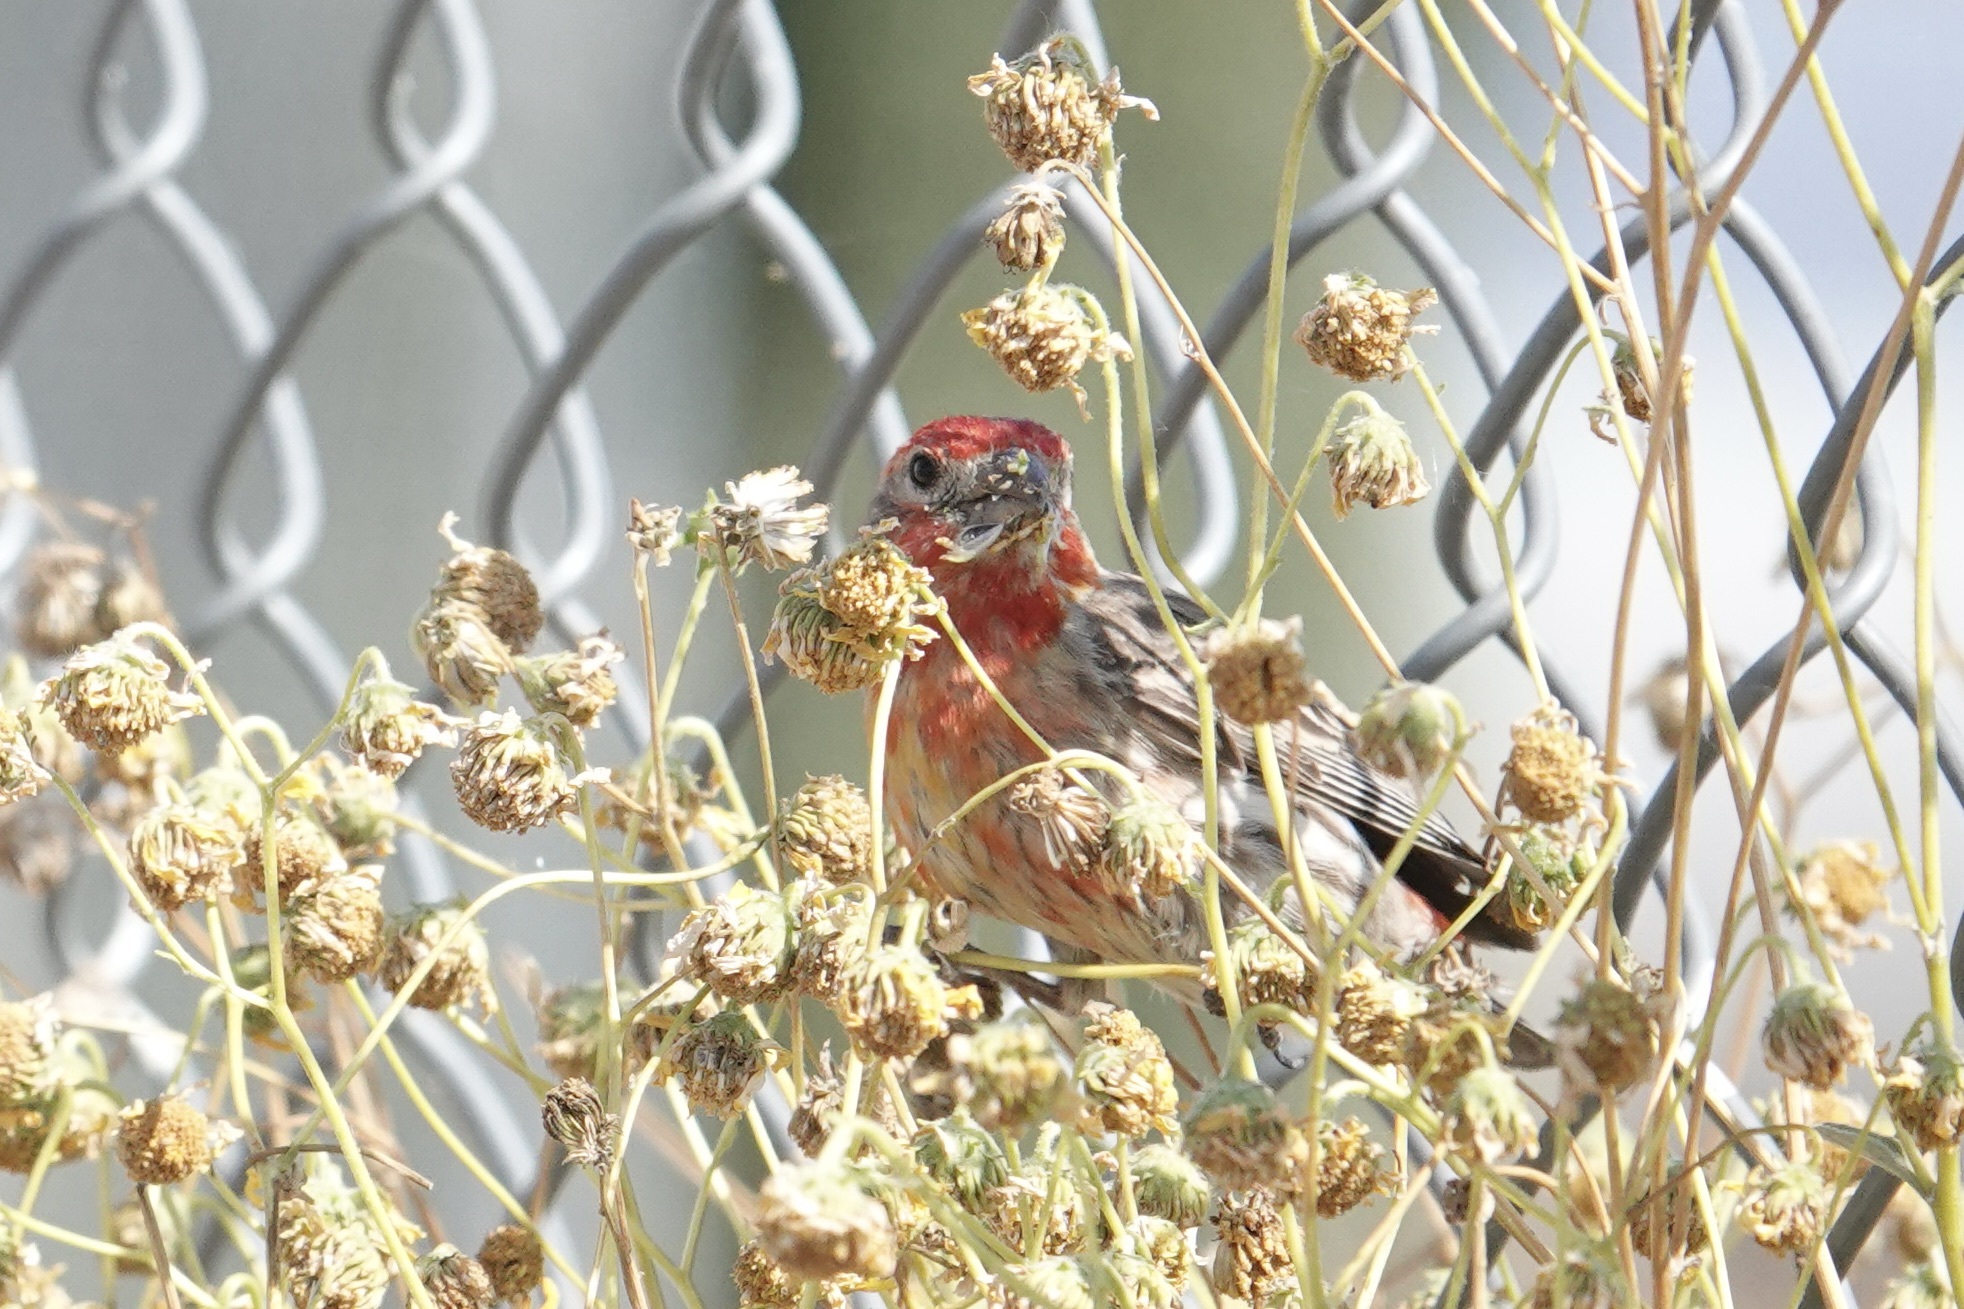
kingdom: Animalia
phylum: Chordata
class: Aves
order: Passeriformes
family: Fringillidae
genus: Haemorhous
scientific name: Haemorhous mexicanus
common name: House finch
